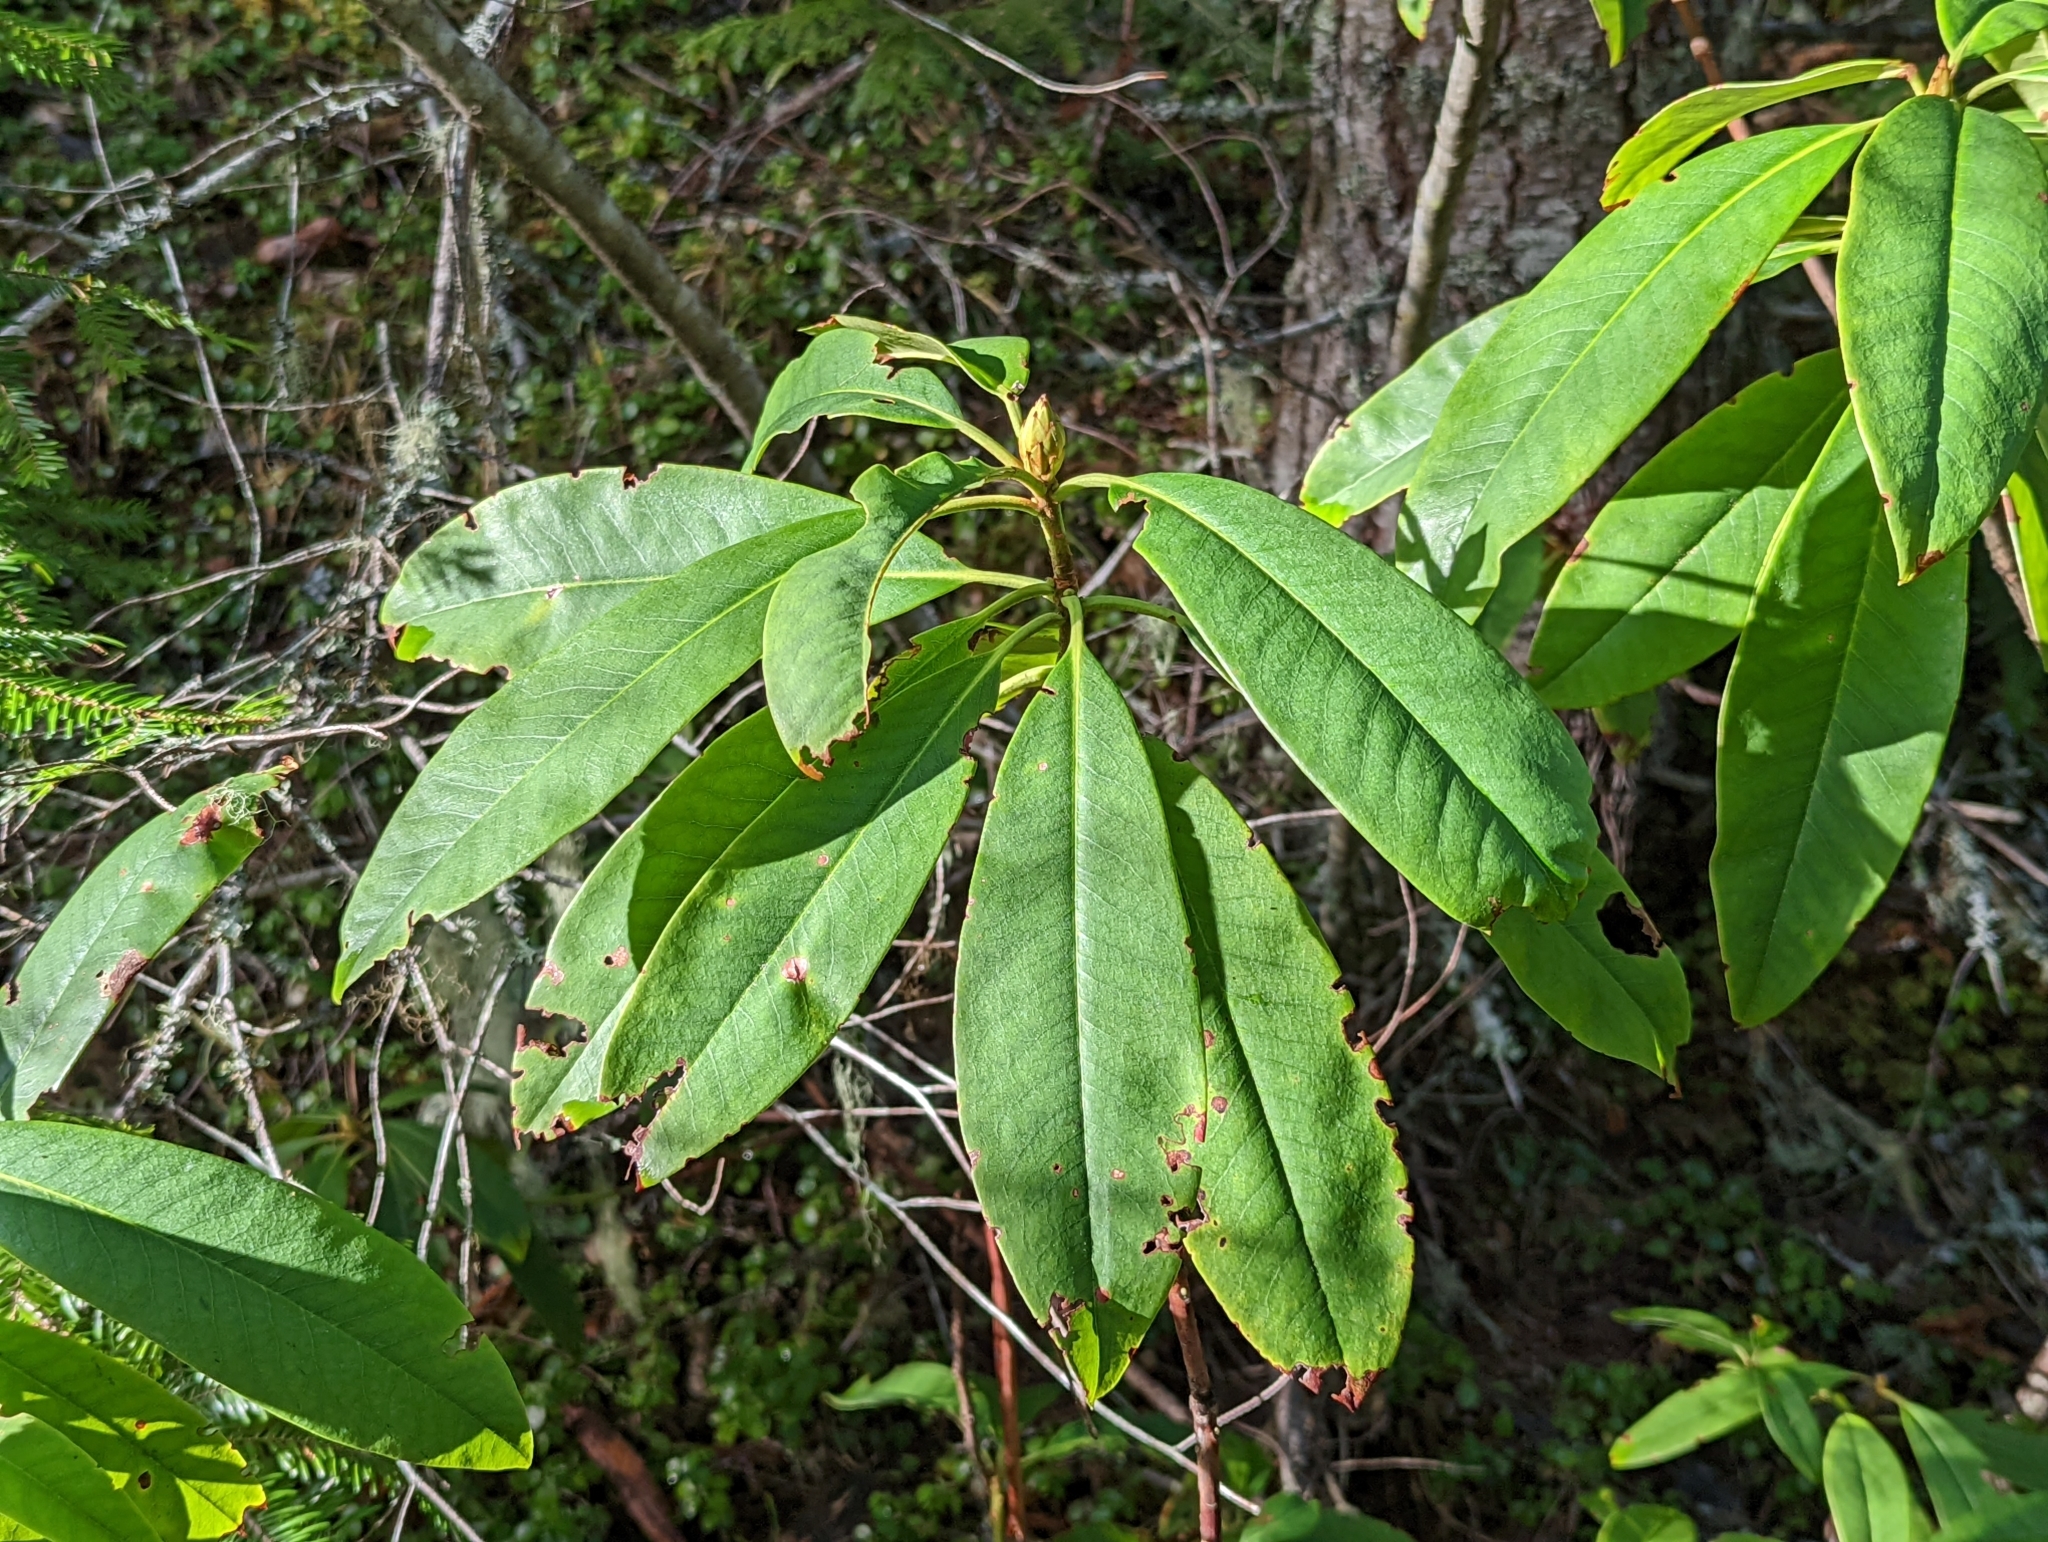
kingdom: Plantae
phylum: Tracheophyta
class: Magnoliopsida
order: Ericales
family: Ericaceae
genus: Rhododendron
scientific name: Rhododendron macrophyllum
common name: California rose bay
